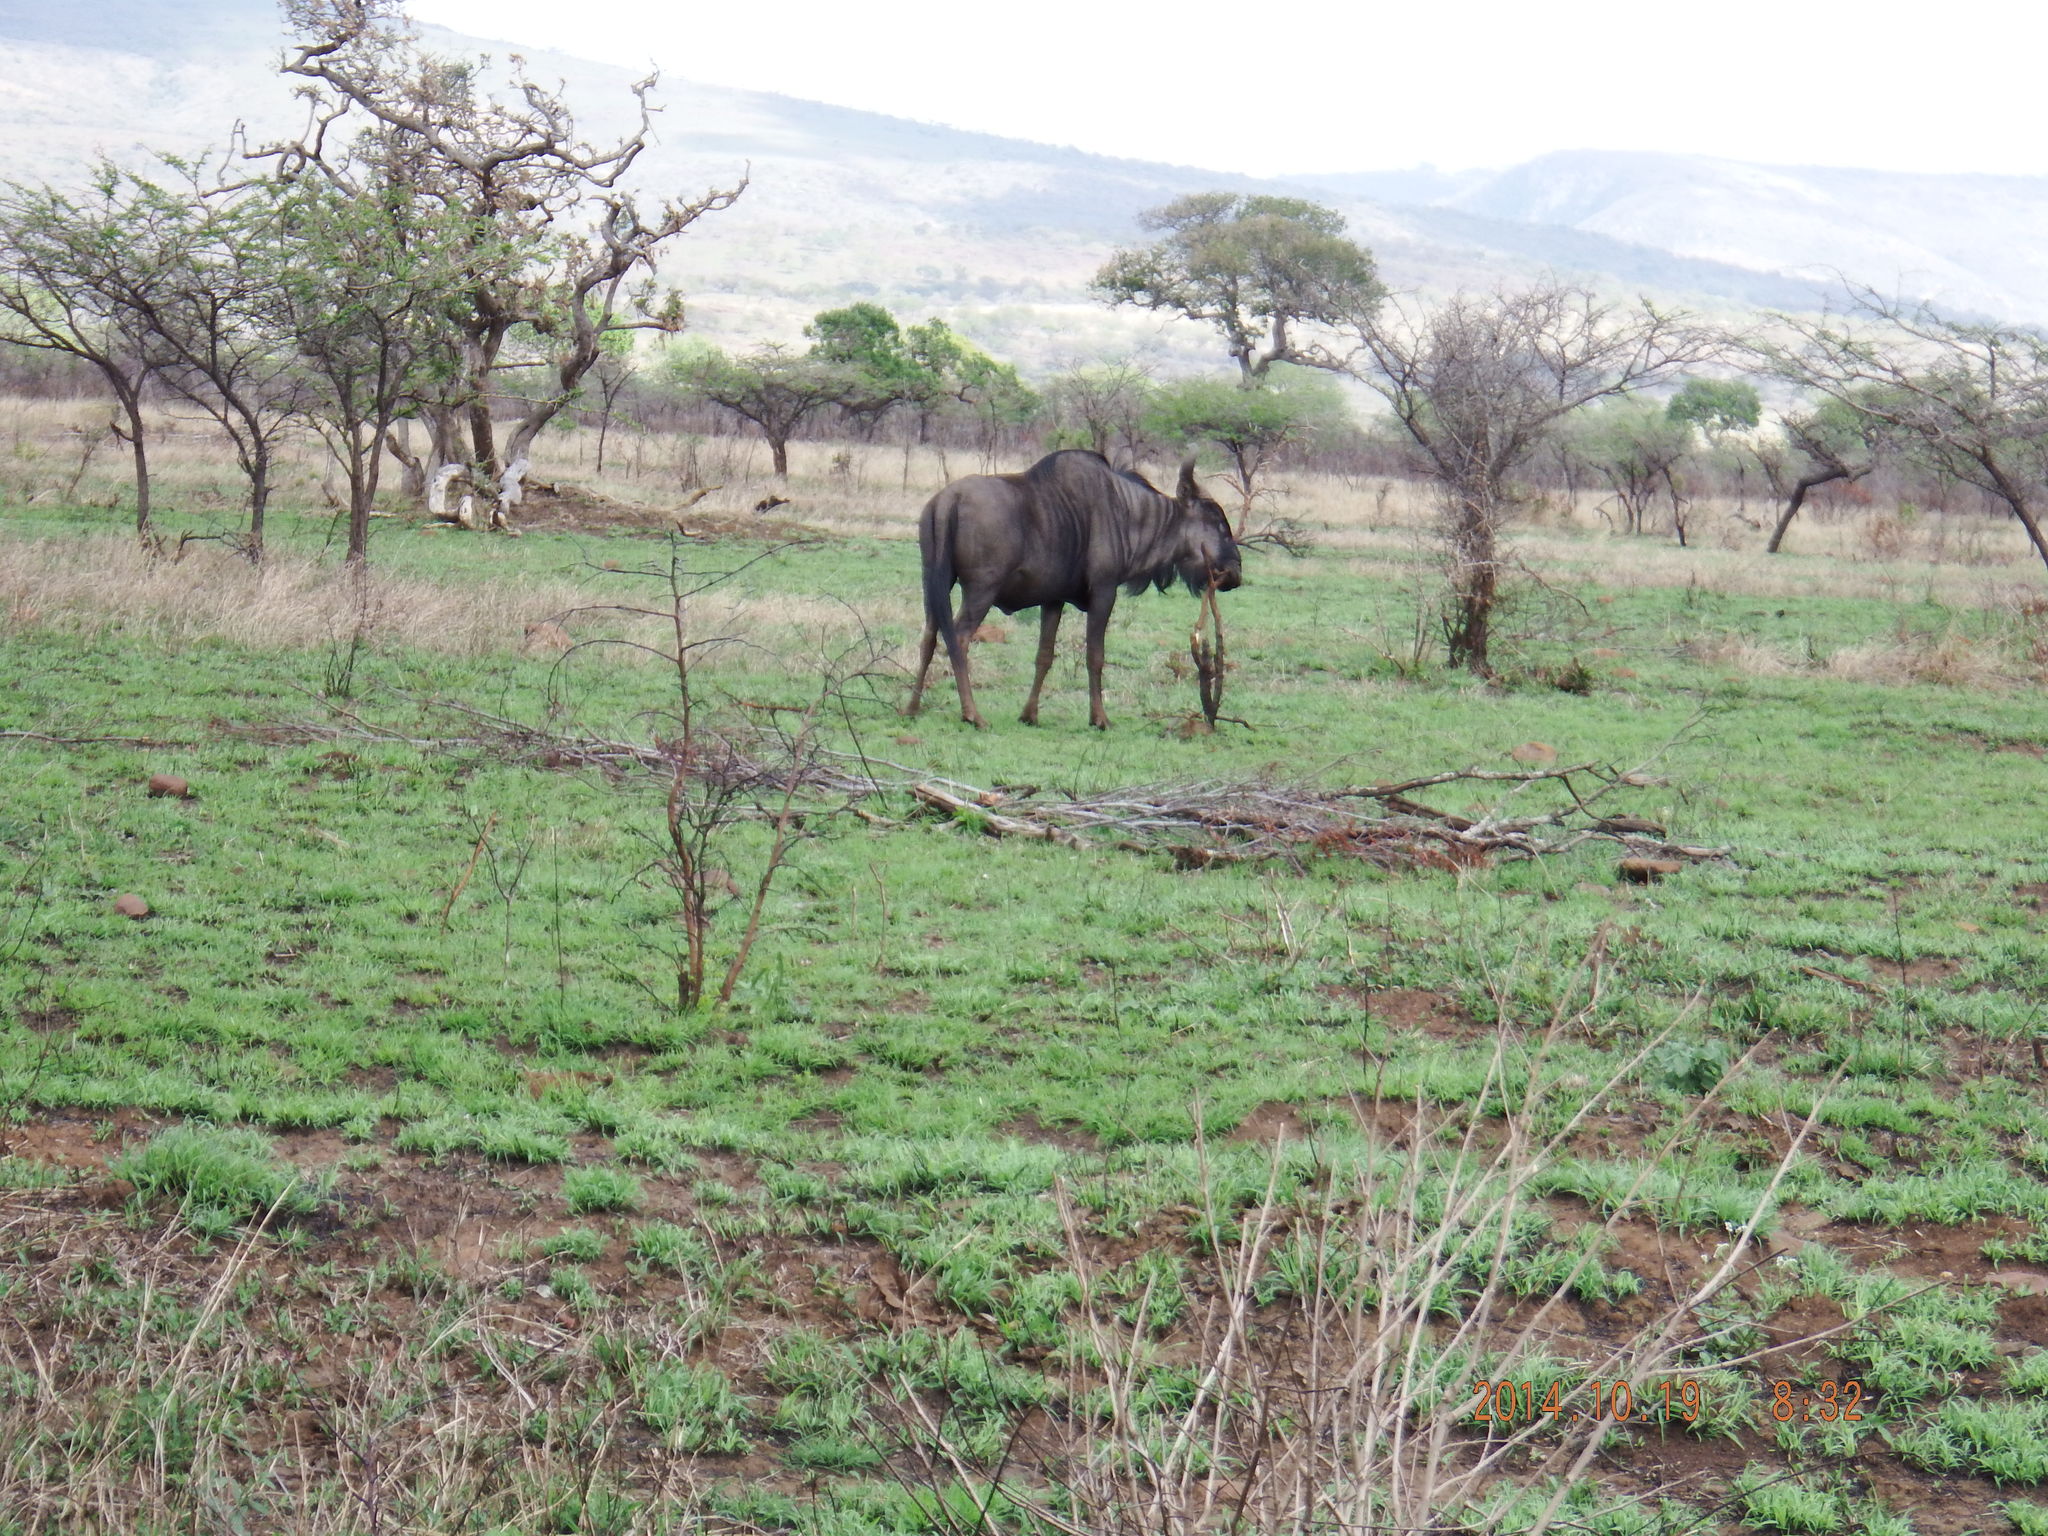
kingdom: Animalia
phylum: Chordata
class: Mammalia
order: Artiodactyla
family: Bovidae
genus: Connochaetes
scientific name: Connochaetes taurinus
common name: Blue wildebeest
